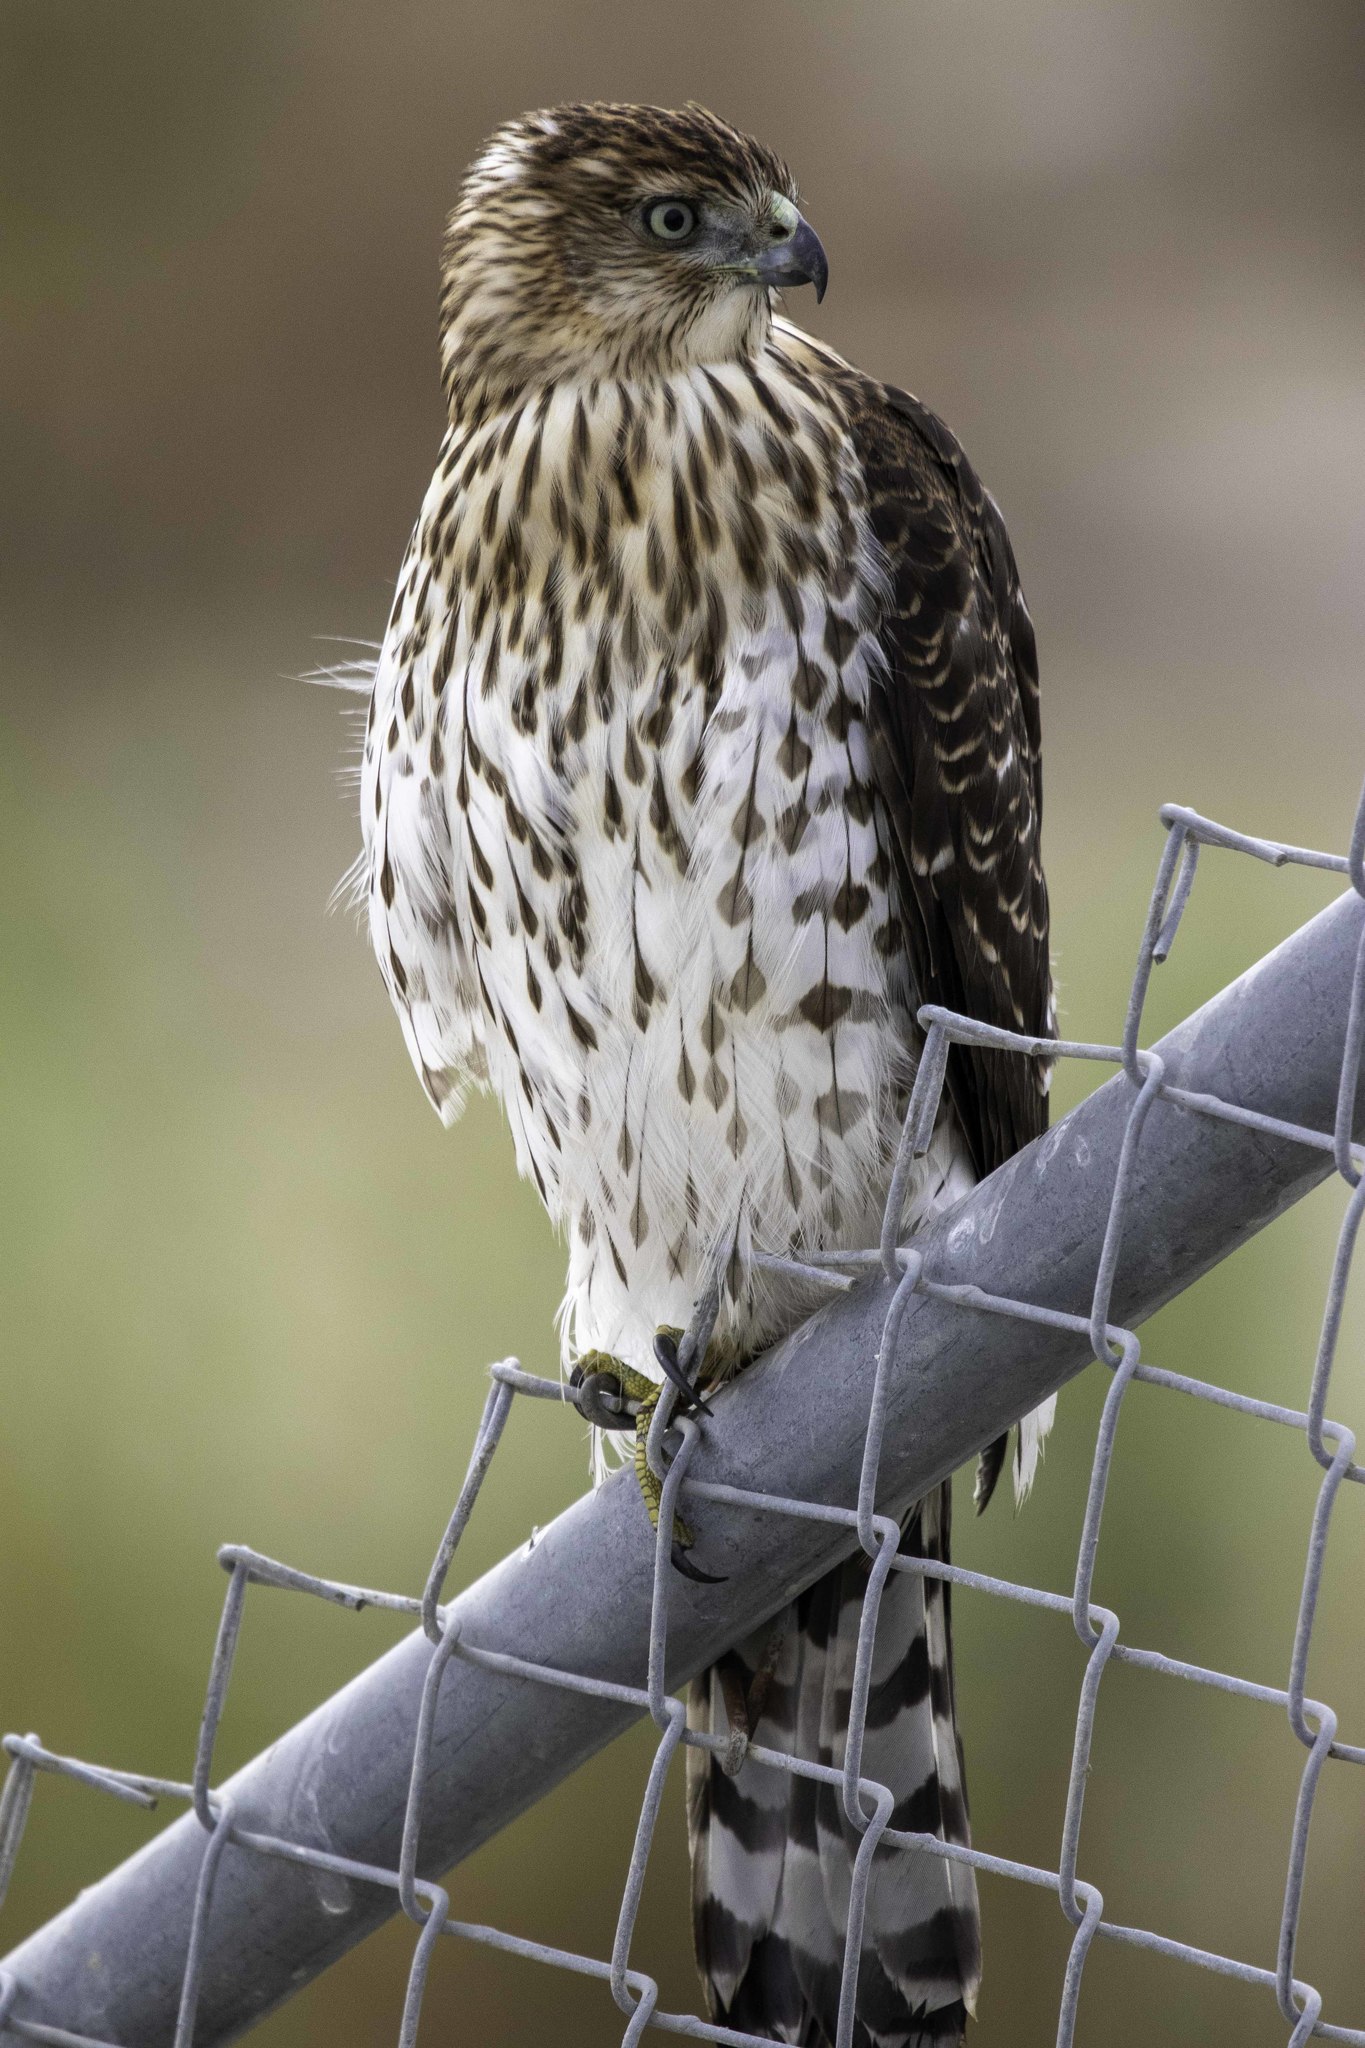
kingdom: Animalia
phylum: Chordata
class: Aves
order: Accipitriformes
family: Accipitridae
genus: Accipiter
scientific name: Accipiter cooperii
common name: Cooper's hawk
